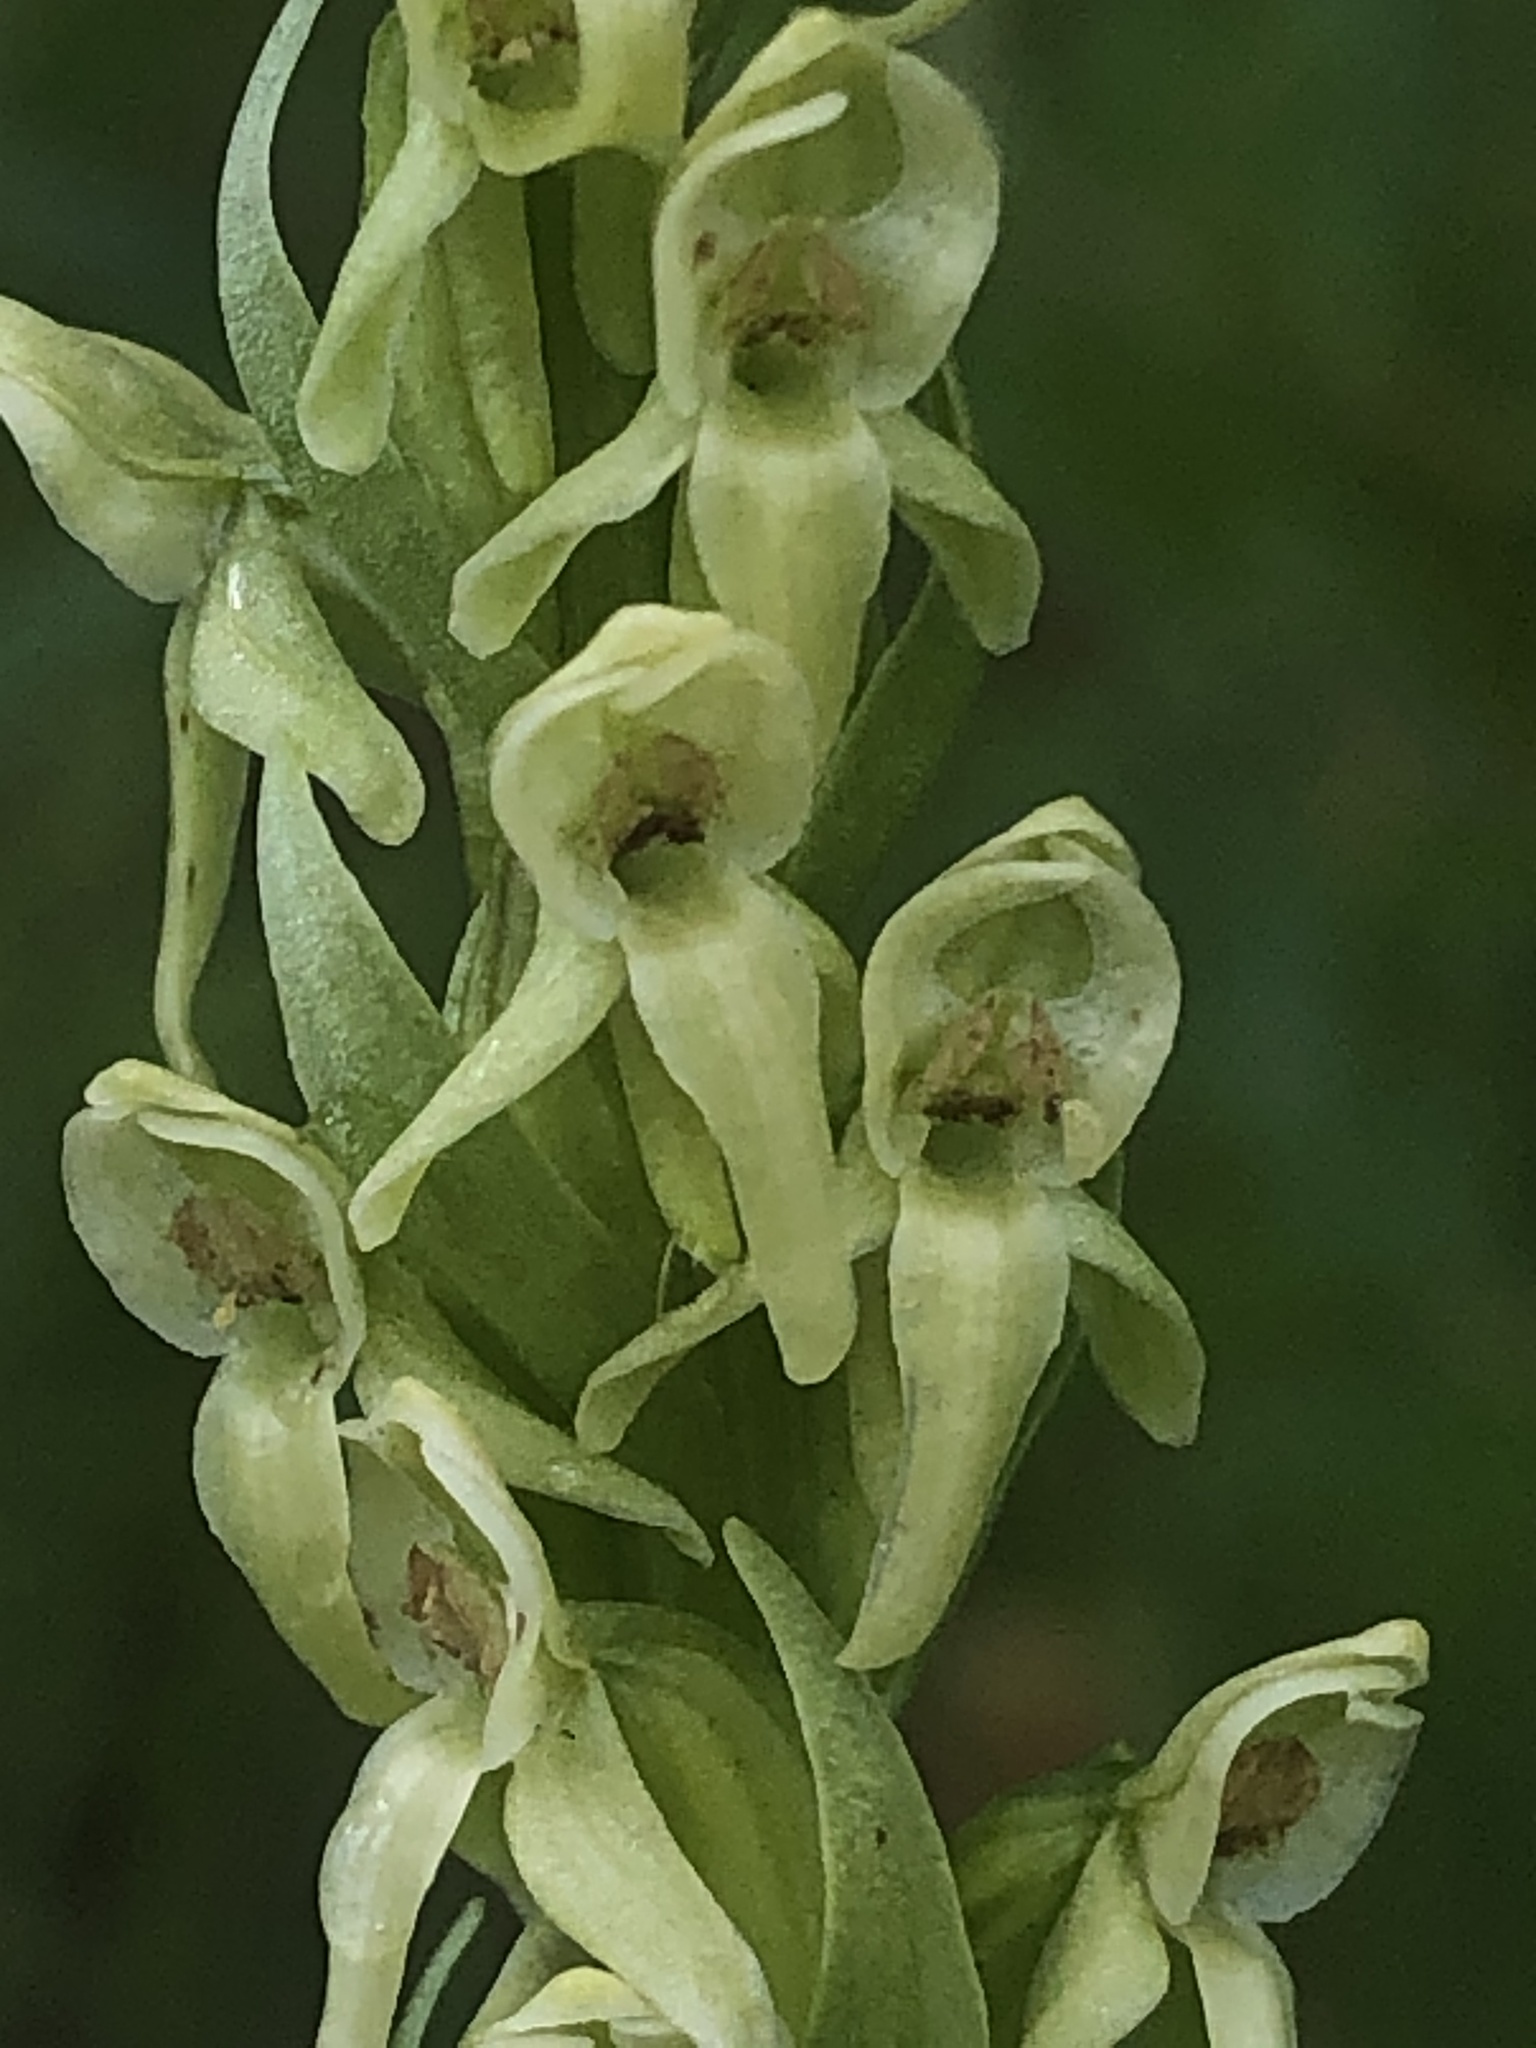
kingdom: Plantae
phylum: Tracheophyta
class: Liliopsida
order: Asparagales
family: Orchidaceae
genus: Platanthera
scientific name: Platanthera huronensis
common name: Fragrant green orchid
